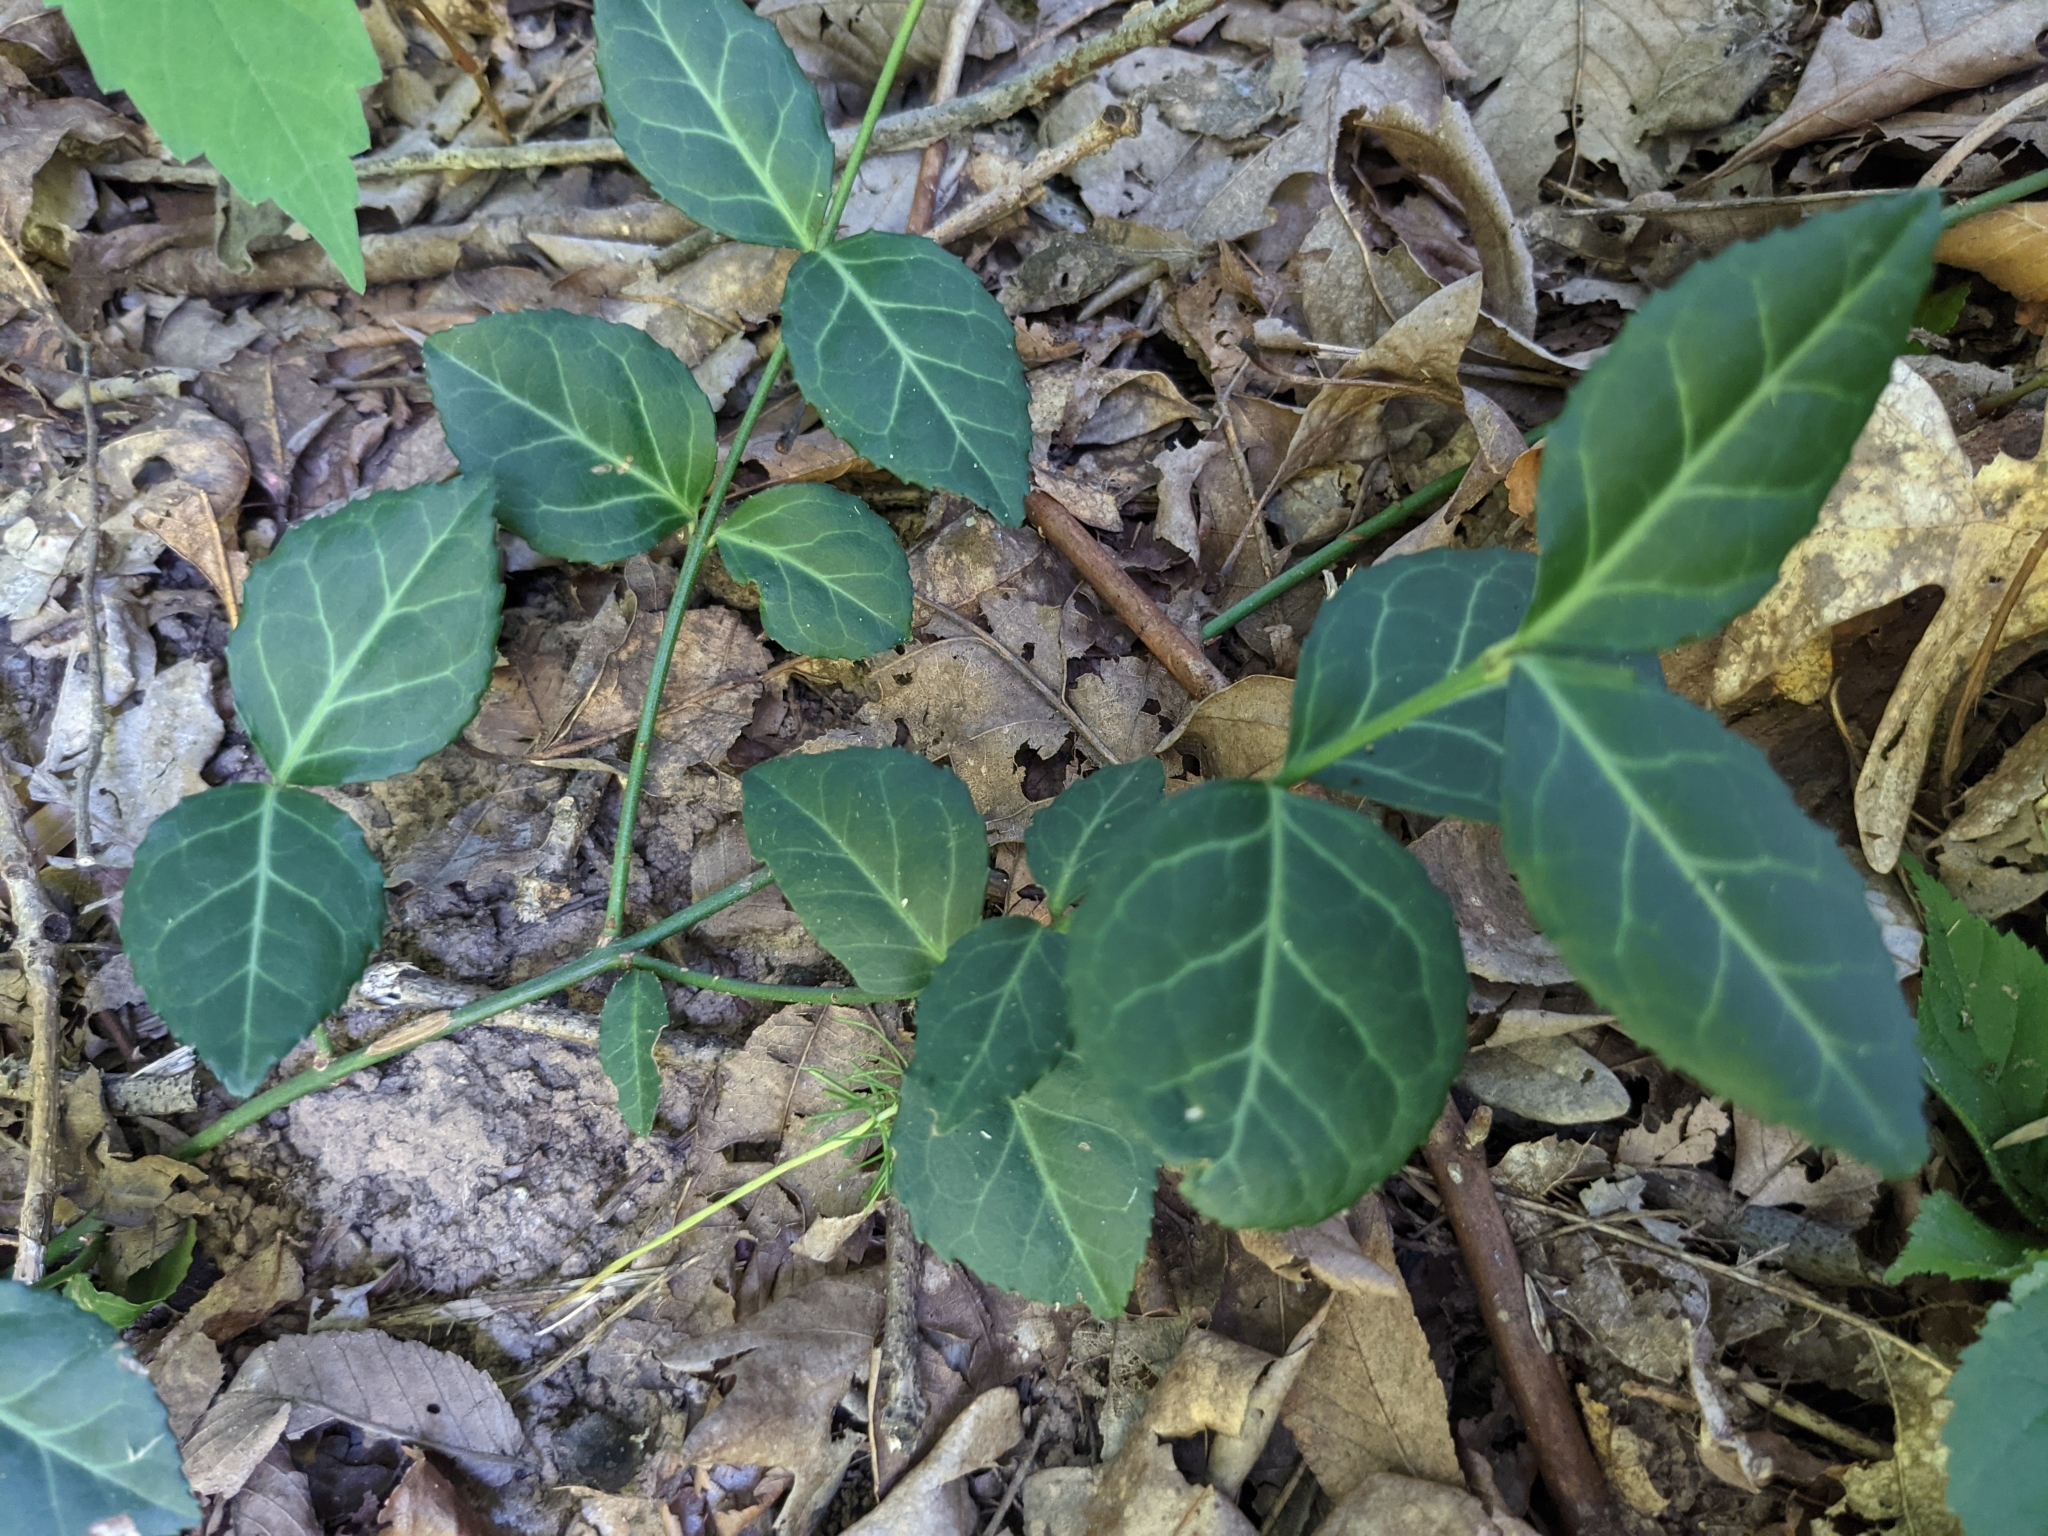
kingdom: Plantae
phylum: Tracheophyta
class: Magnoliopsida
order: Celastrales
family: Celastraceae
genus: Euonymus
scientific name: Euonymus fortunei
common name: Climbing euonymus
